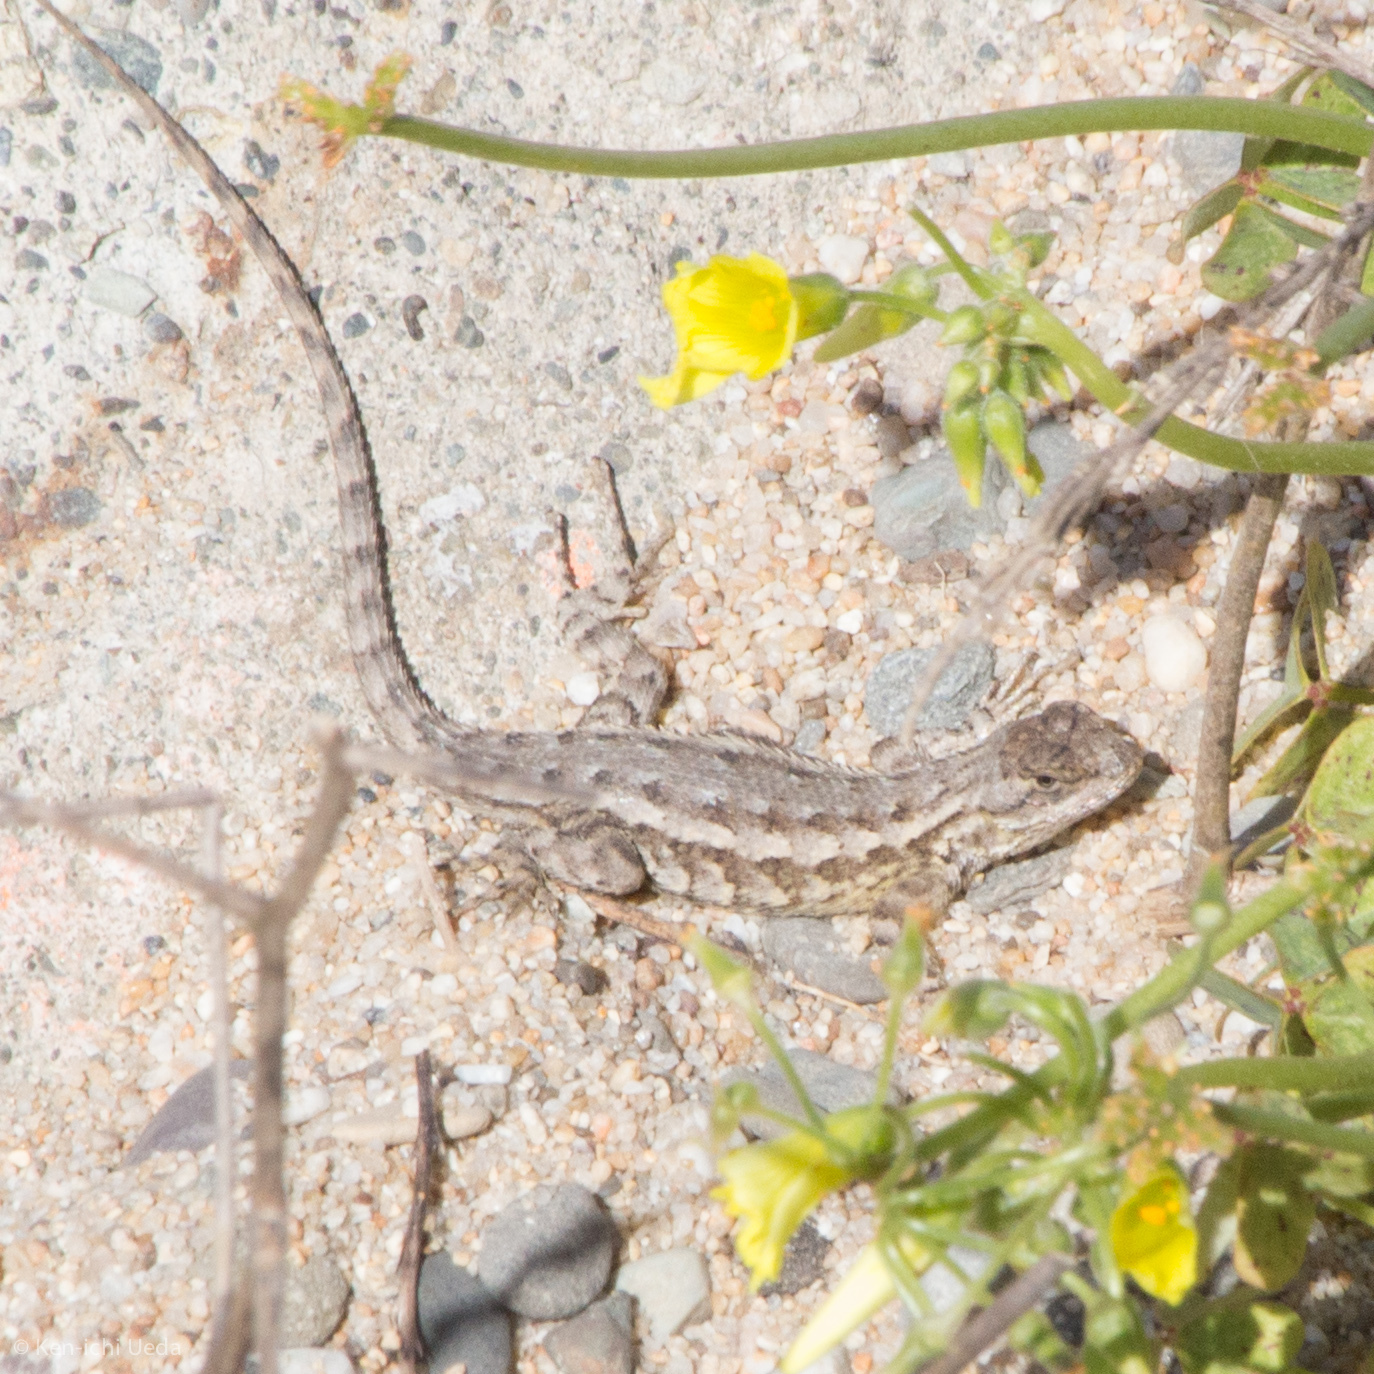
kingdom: Animalia
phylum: Chordata
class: Squamata
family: Phrynosomatidae
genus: Sceloporus
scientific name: Sceloporus occidentalis
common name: Western fence lizard
